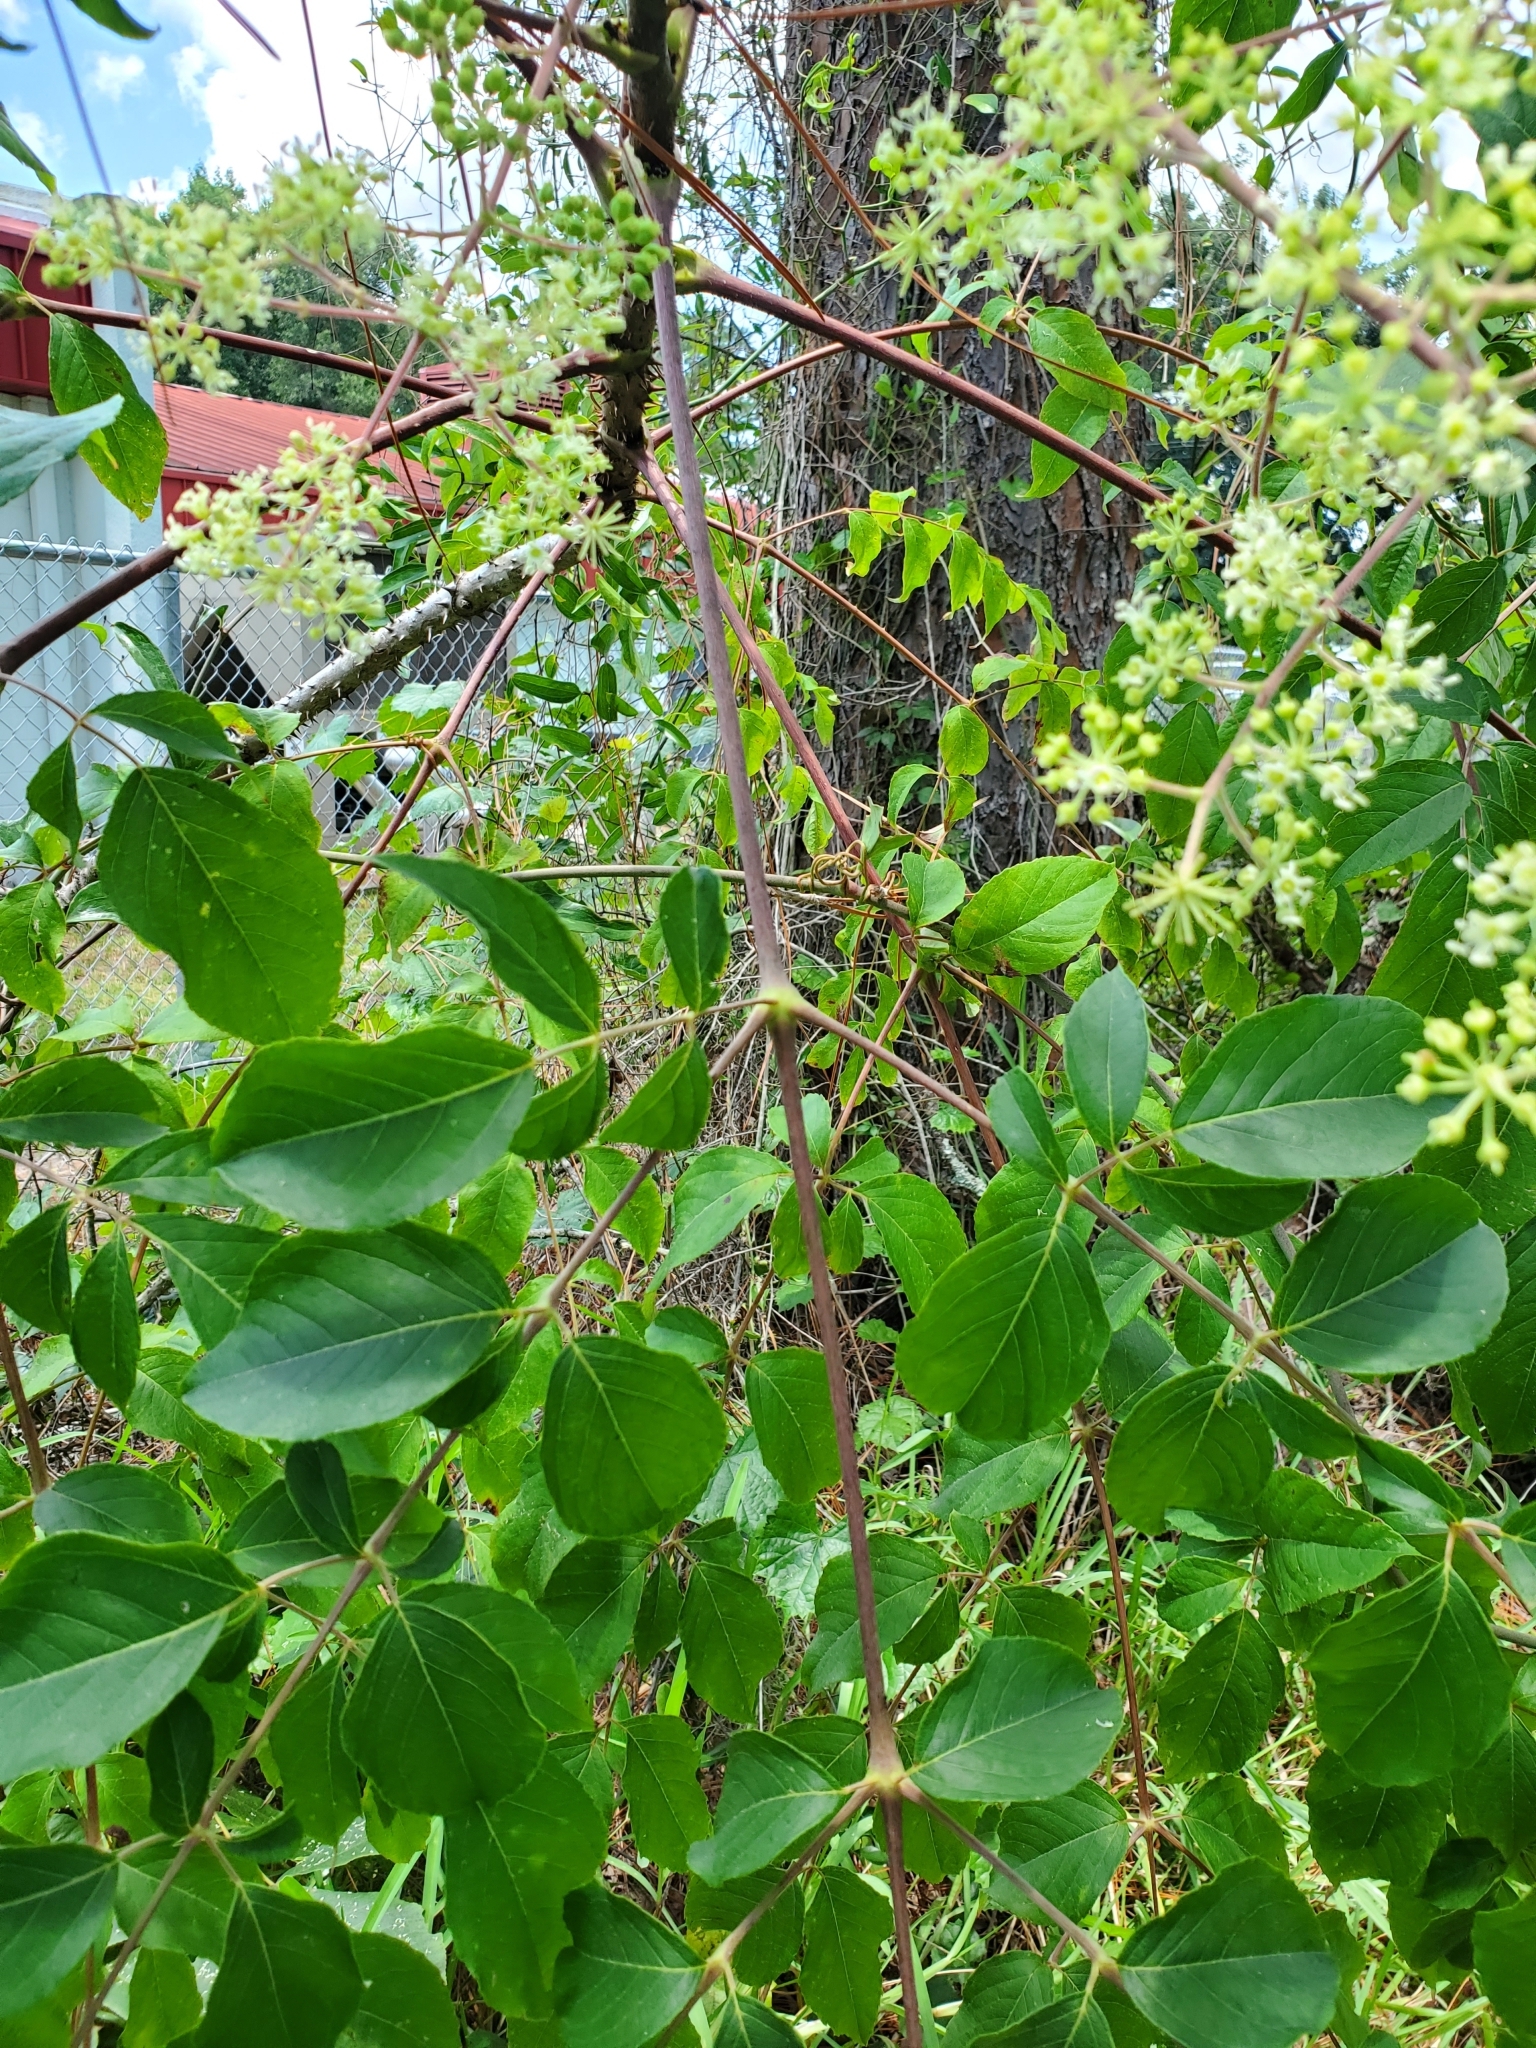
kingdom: Plantae
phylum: Tracheophyta
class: Magnoliopsida
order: Apiales
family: Araliaceae
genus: Aralia
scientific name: Aralia spinosa
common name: Hercules'-club
